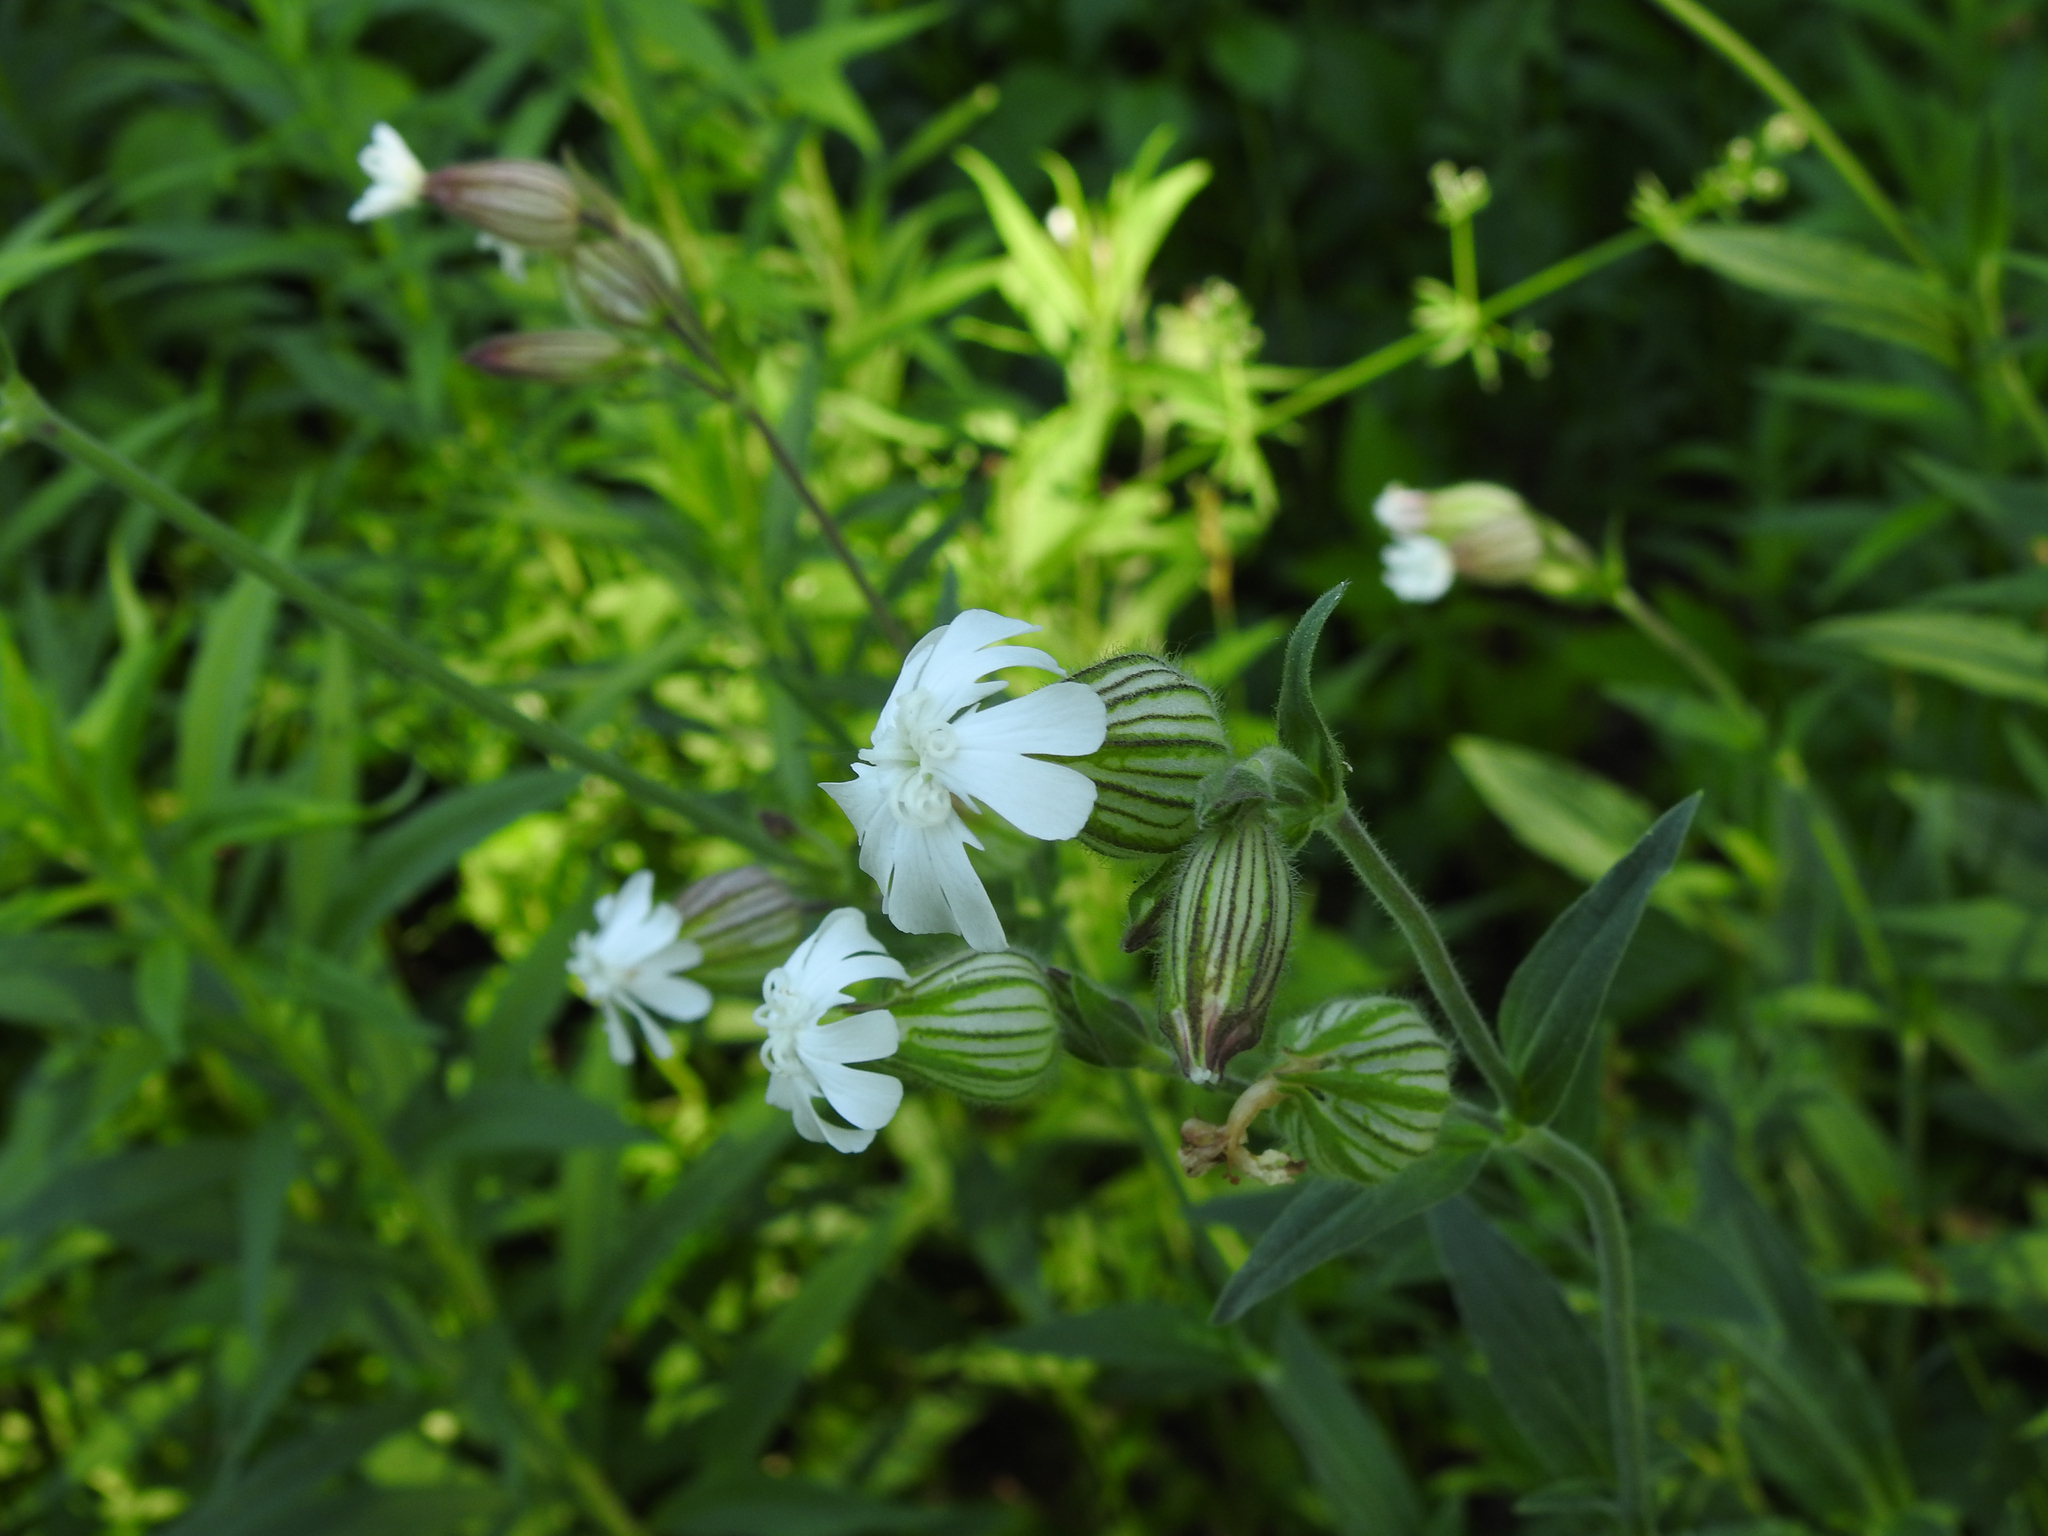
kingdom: Plantae
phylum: Tracheophyta
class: Magnoliopsida
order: Caryophyllales
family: Caryophyllaceae
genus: Silene
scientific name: Silene latifolia
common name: White campion
